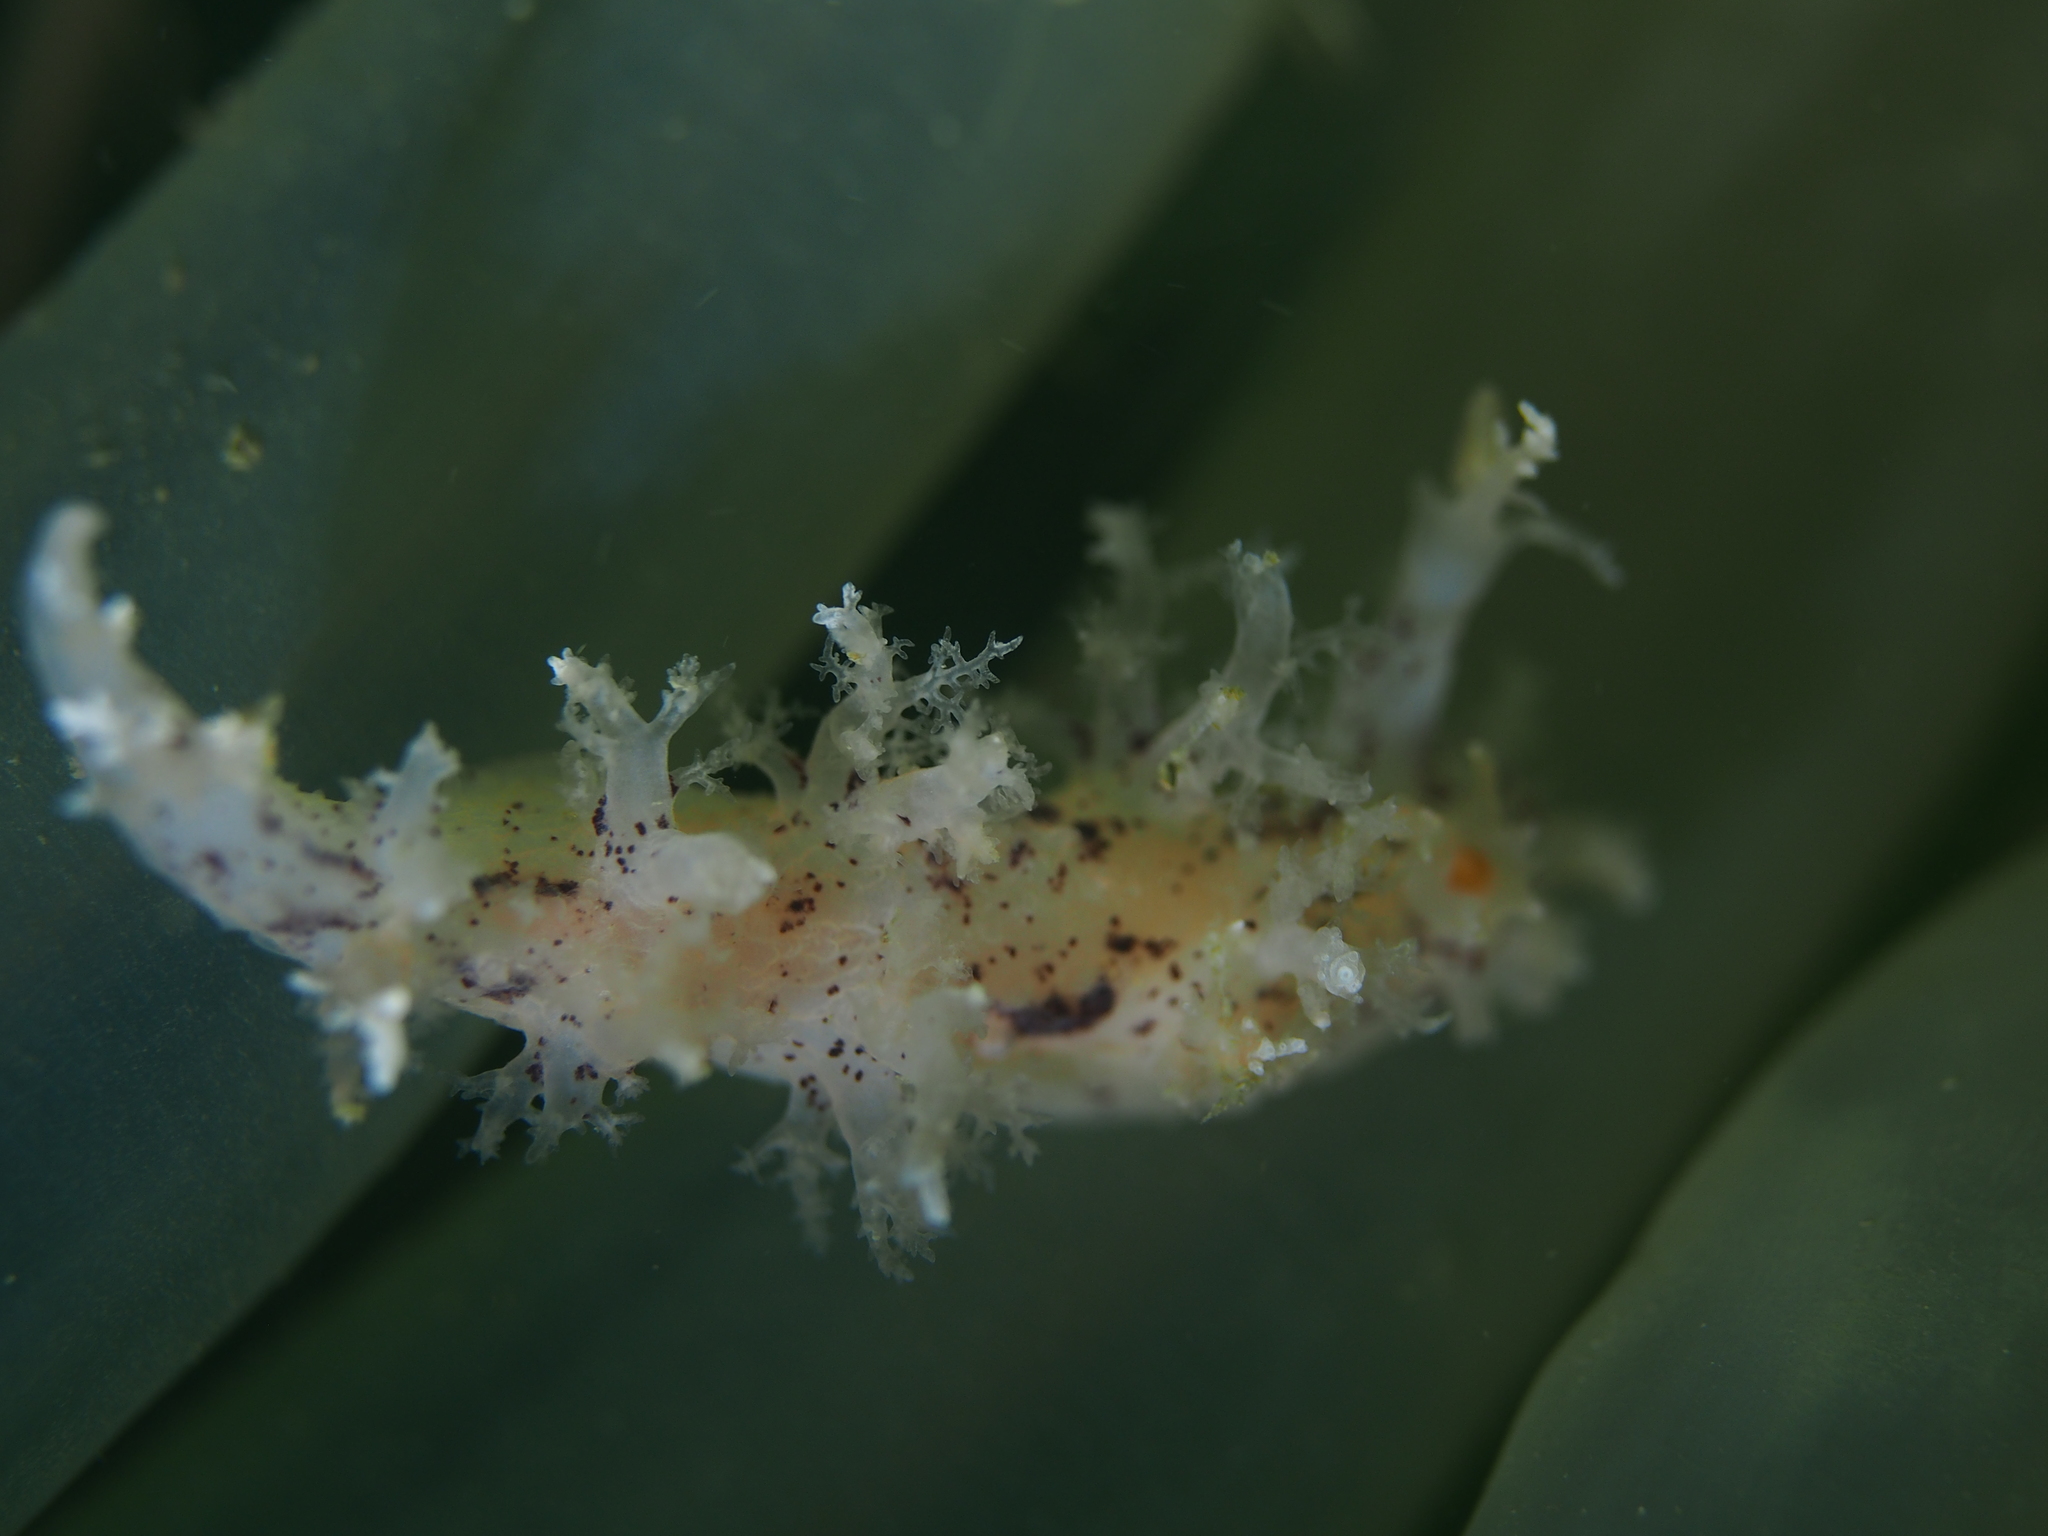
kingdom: Animalia
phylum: Mollusca
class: Gastropoda
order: Nudibranchia
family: Dendronotidae
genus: Dendronotus
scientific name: Dendronotus lacteus
